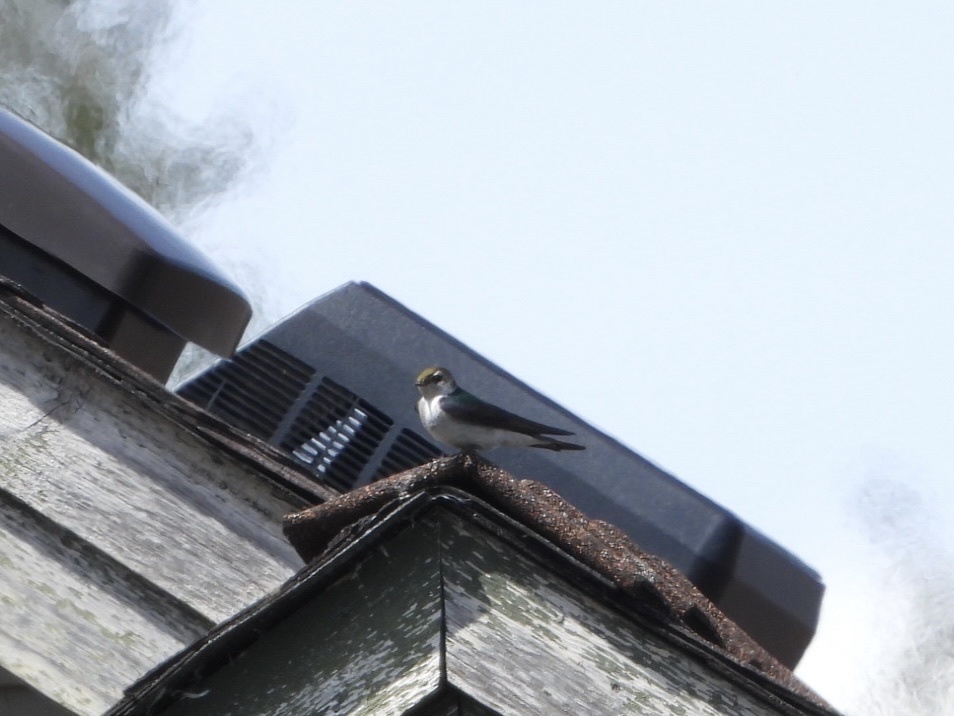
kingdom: Animalia
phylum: Chordata
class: Aves
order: Passeriformes
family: Hirundinidae
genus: Tachycineta
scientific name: Tachycineta thalassina
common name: Violet-green swallow
